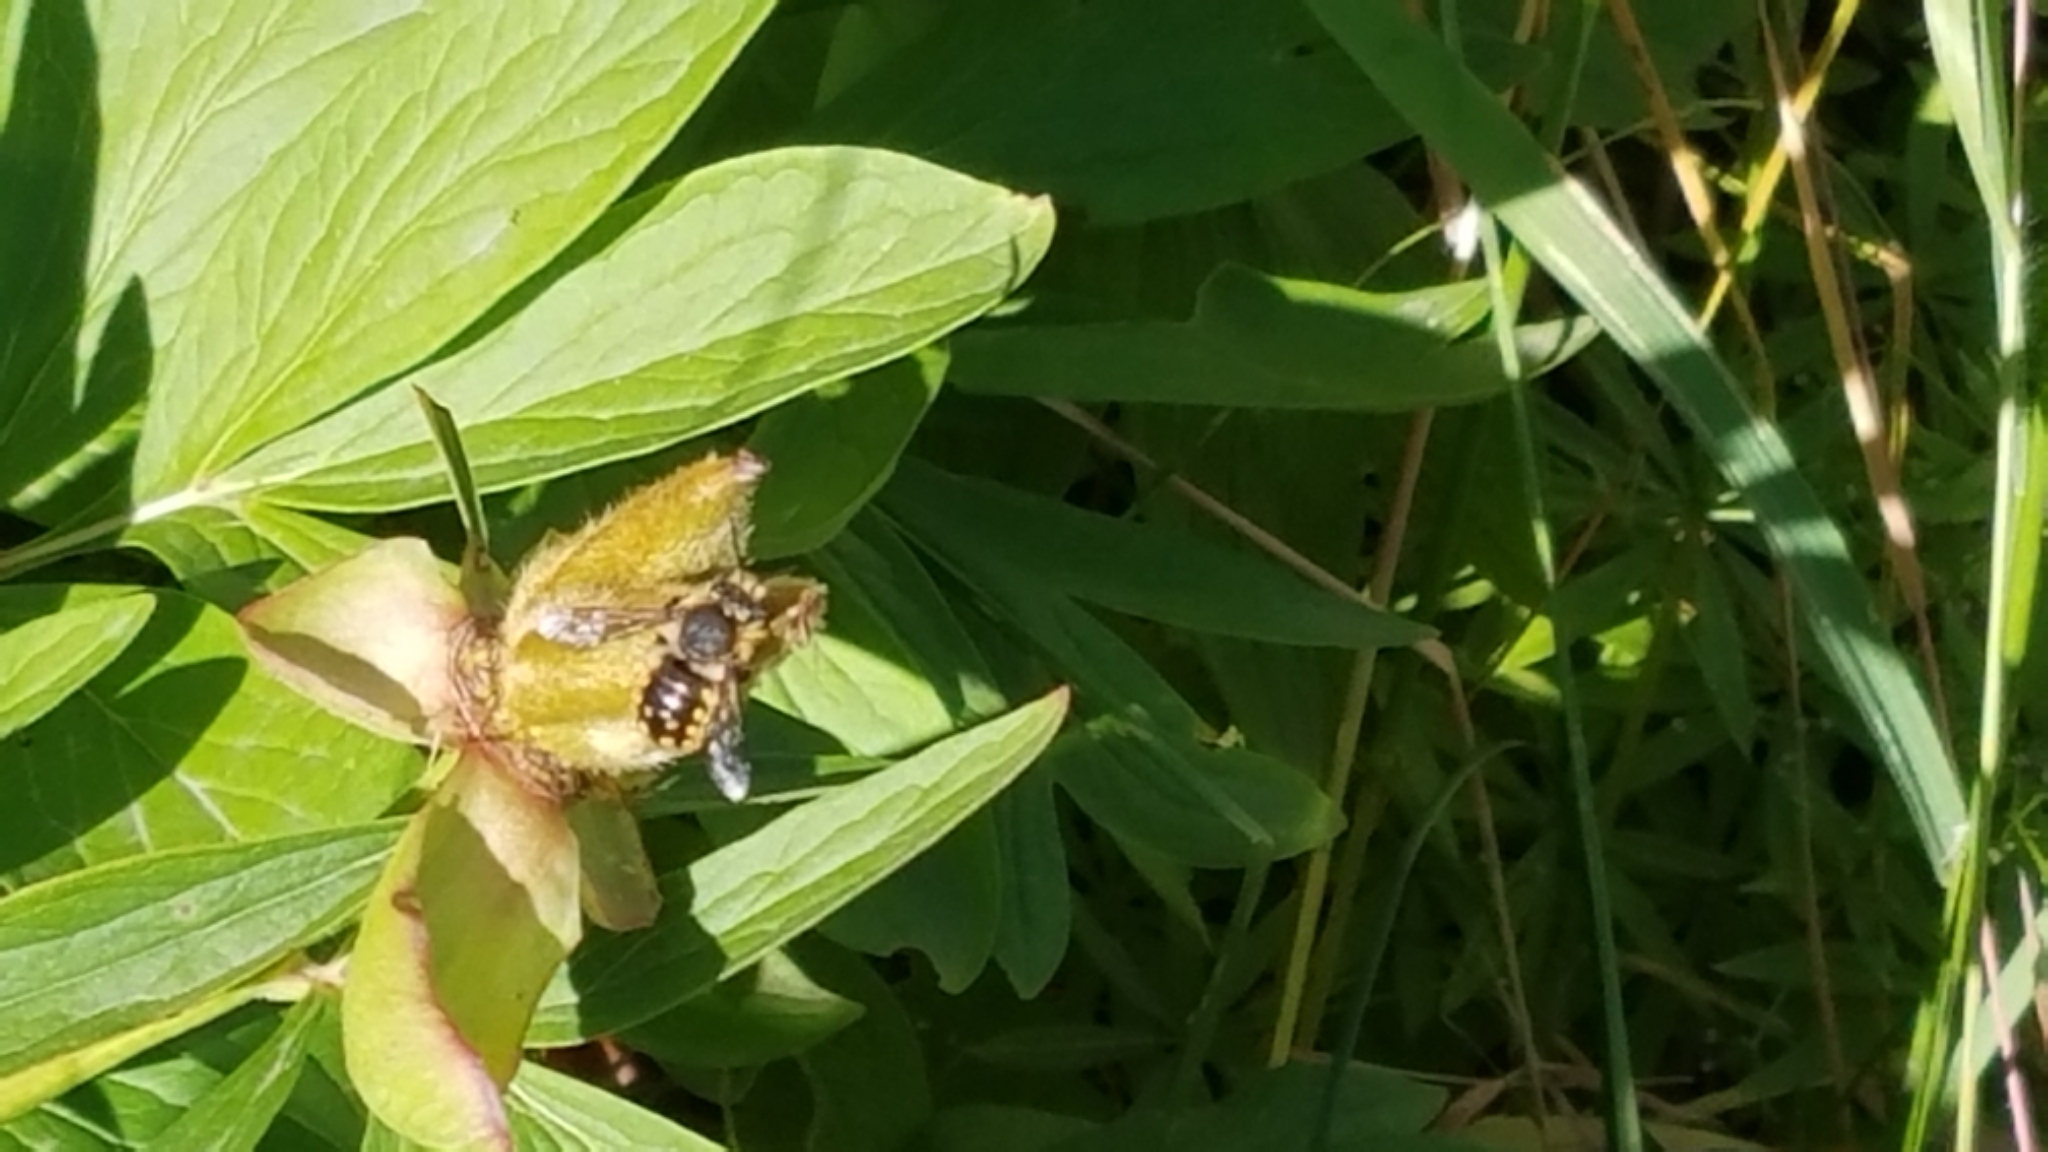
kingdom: Animalia
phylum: Arthropoda
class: Insecta
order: Hymenoptera
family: Megachilidae
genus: Anthidium
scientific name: Anthidium manicatum
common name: Wool carder bee
